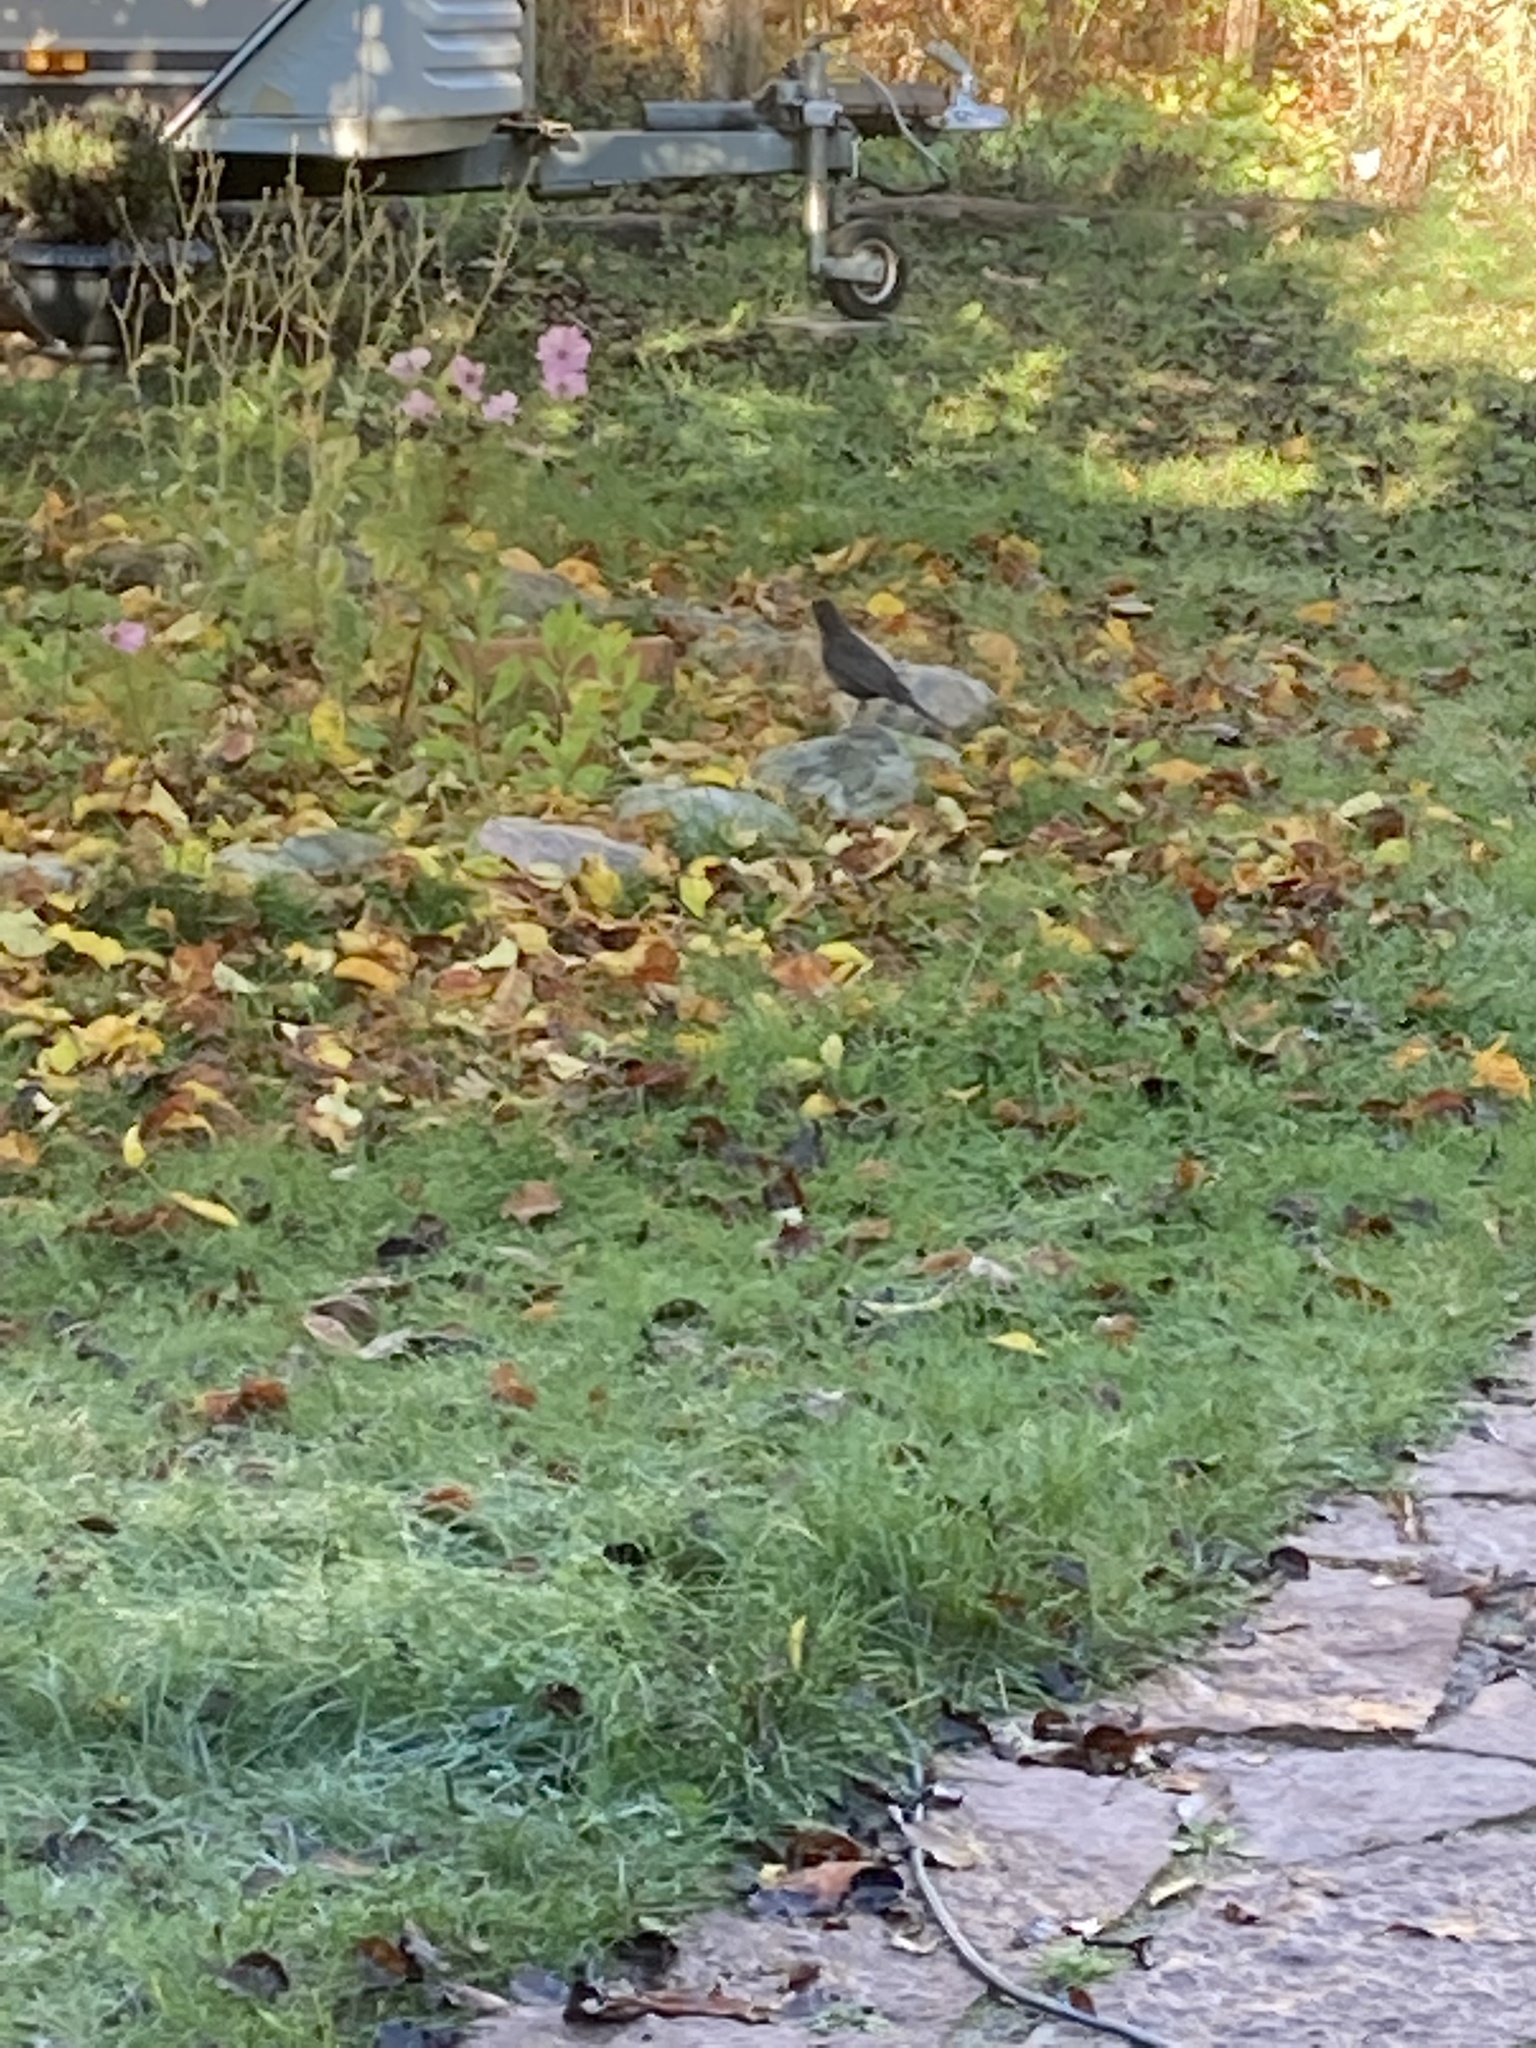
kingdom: Animalia
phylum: Chordata
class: Aves
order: Passeriformes
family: Turdidae
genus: Turdus
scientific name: Turdus merula
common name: Common blackbird
